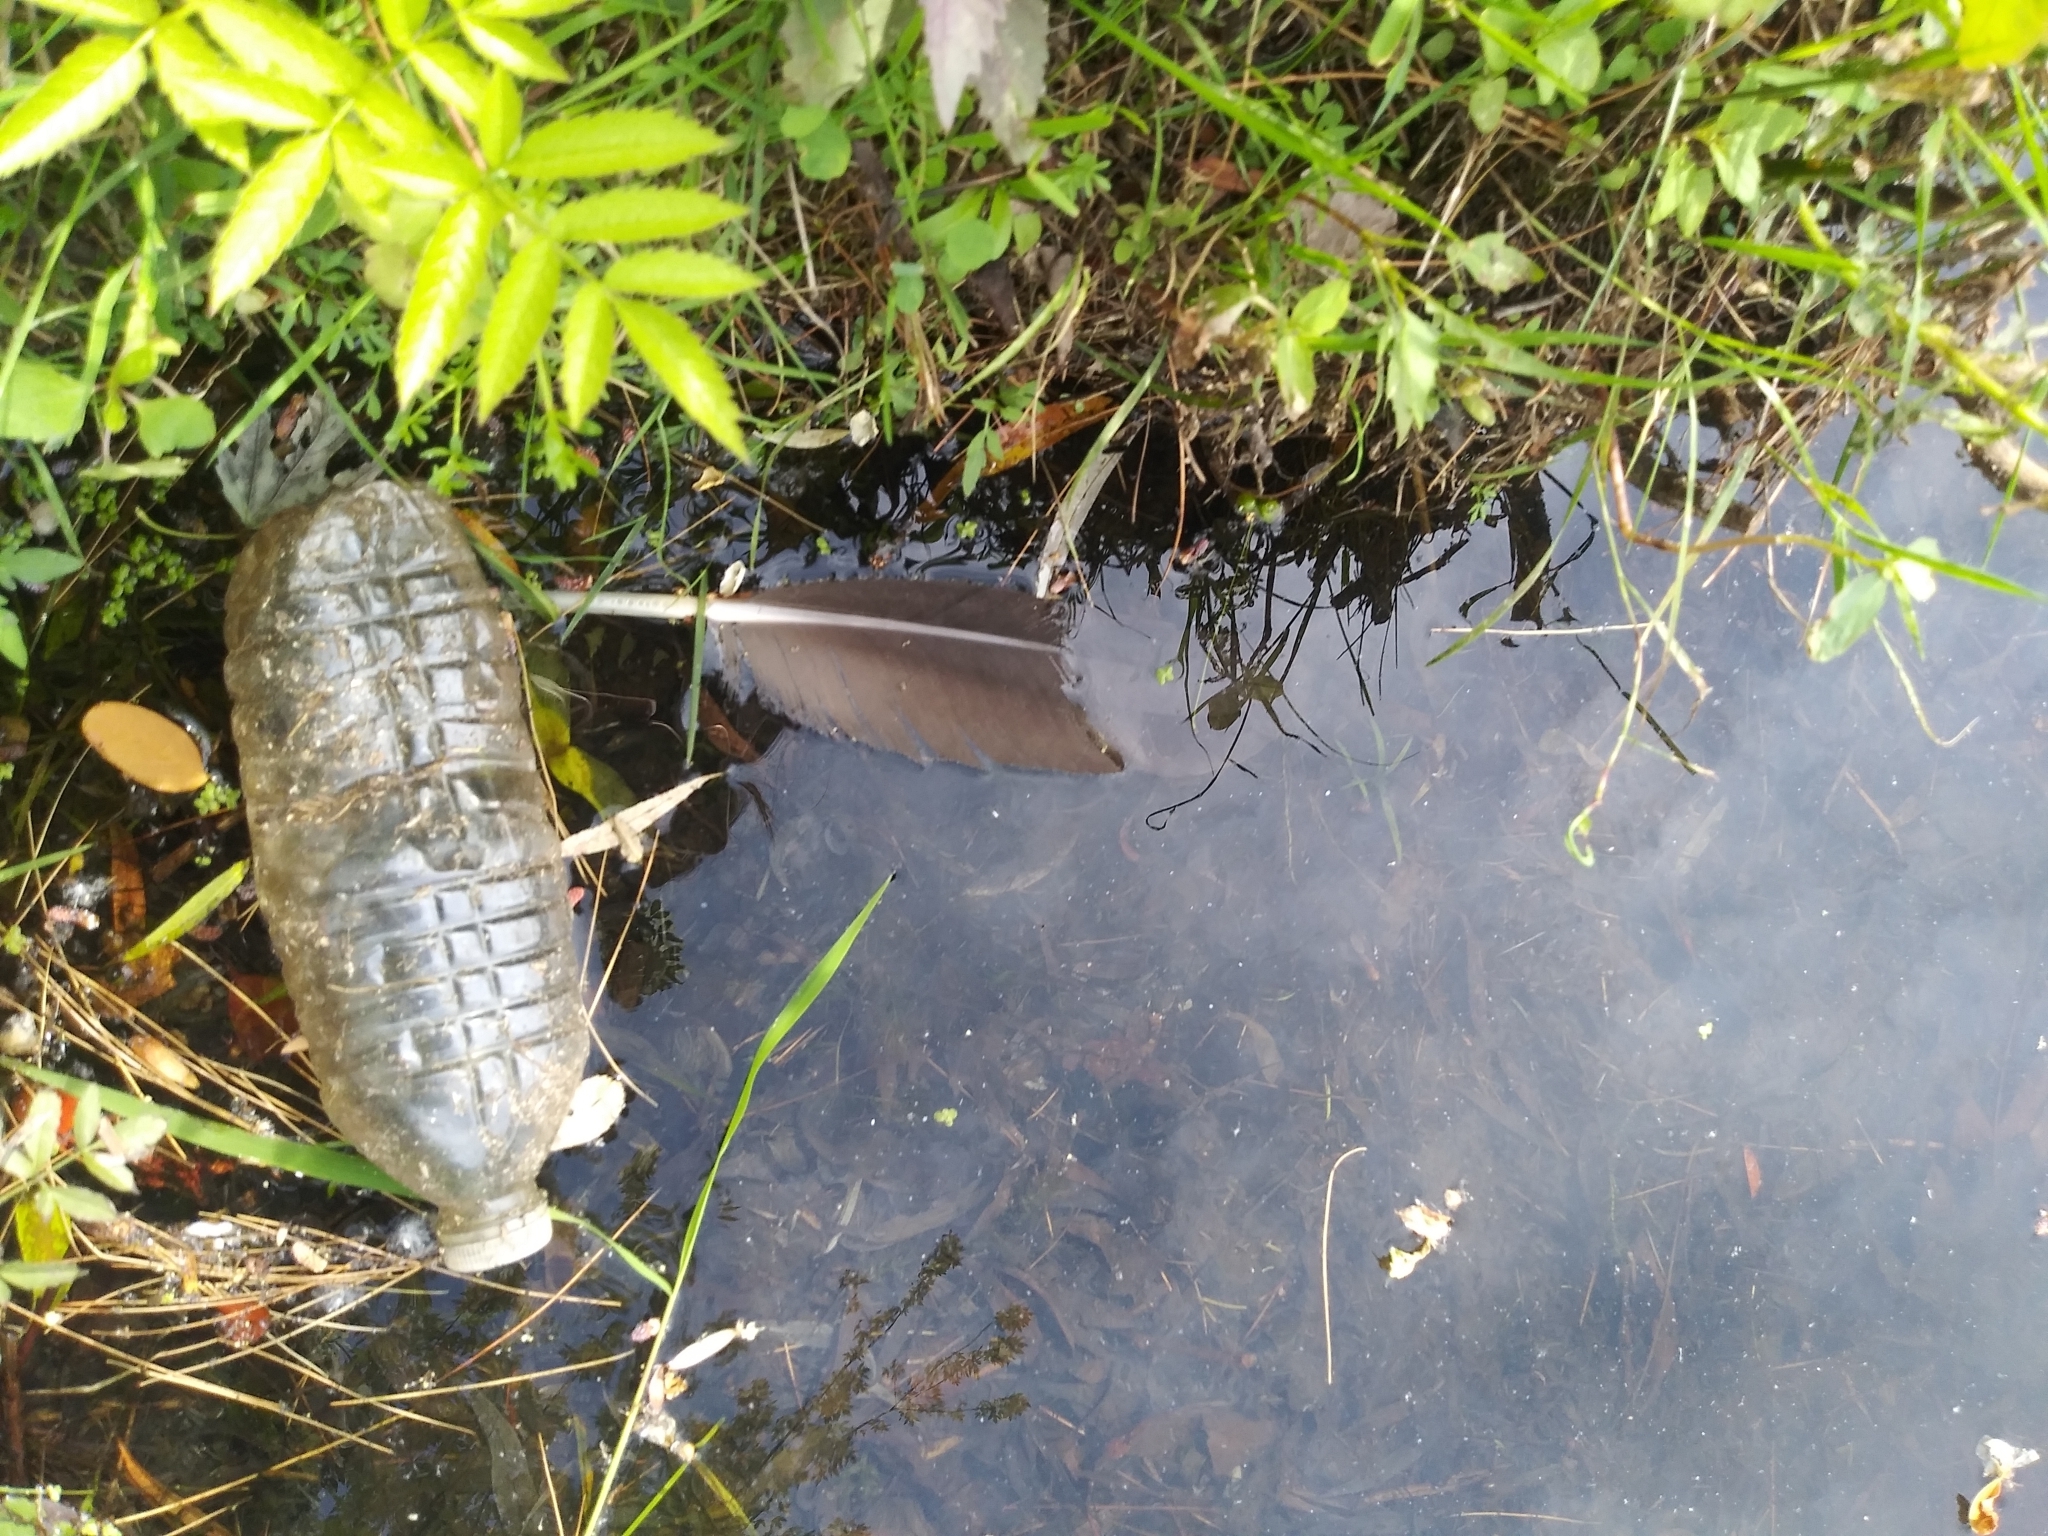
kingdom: Animalia
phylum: Chordata
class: Aves
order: Anseriformes
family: Anatidae
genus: Branta
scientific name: Branta canadensis
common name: Canada goose
